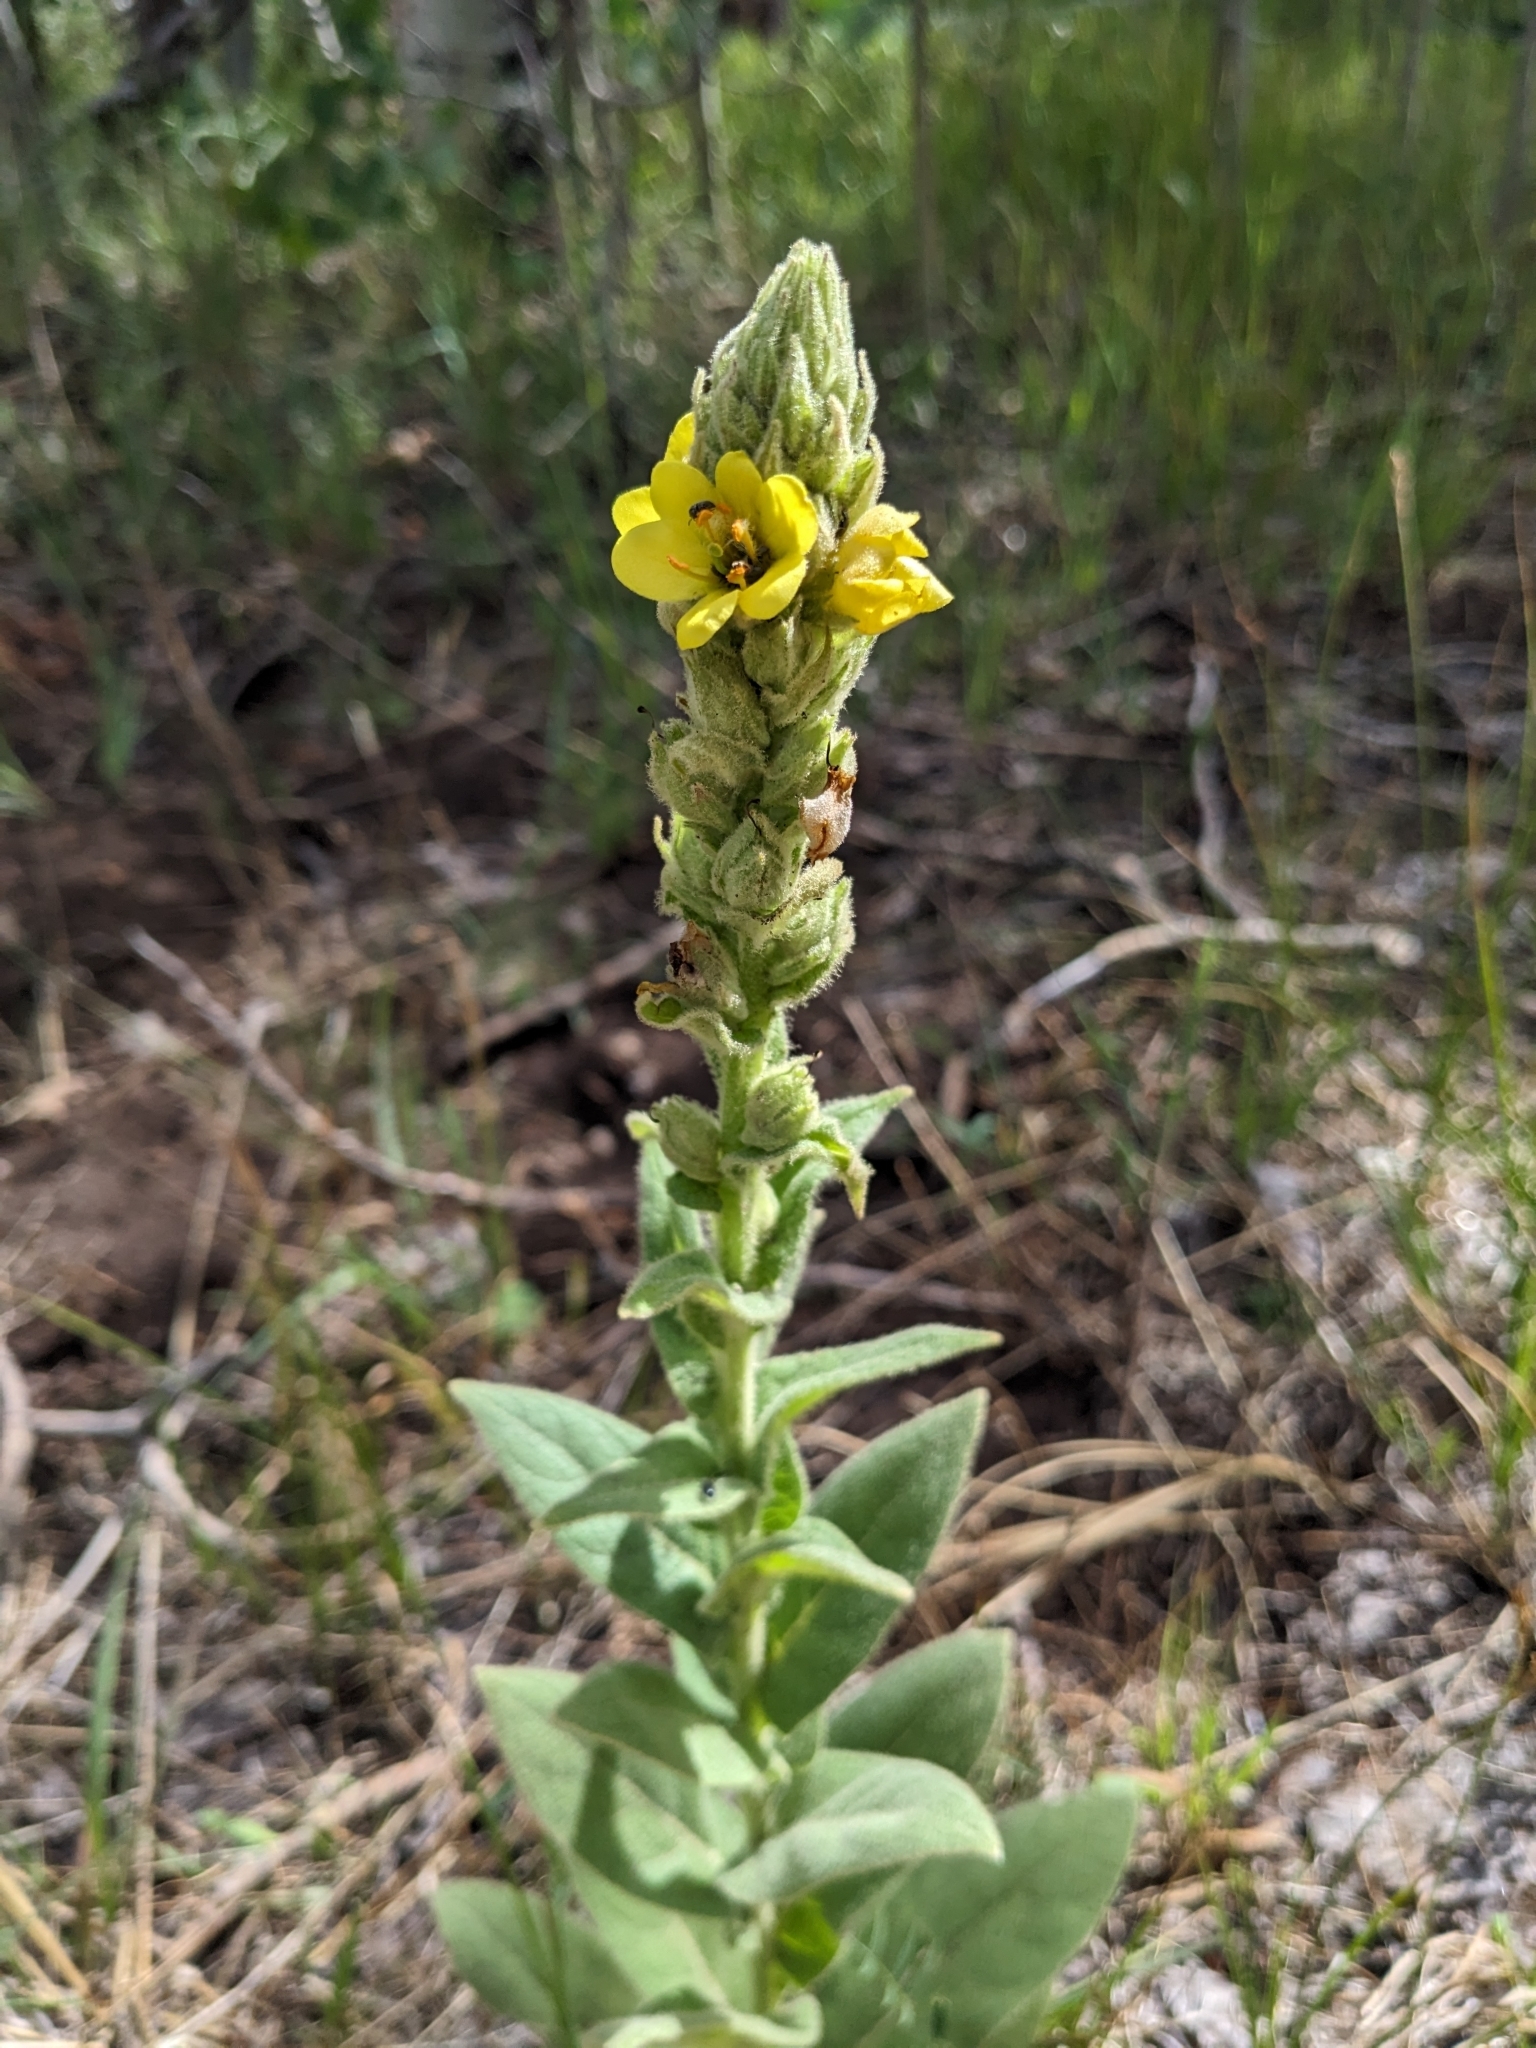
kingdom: Plantae
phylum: Tracheophyta
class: Magnoliopsida
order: Lamiales
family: Scrophulariaceae
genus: Verbascum
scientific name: Verbascum thapsus
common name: Common mullein
